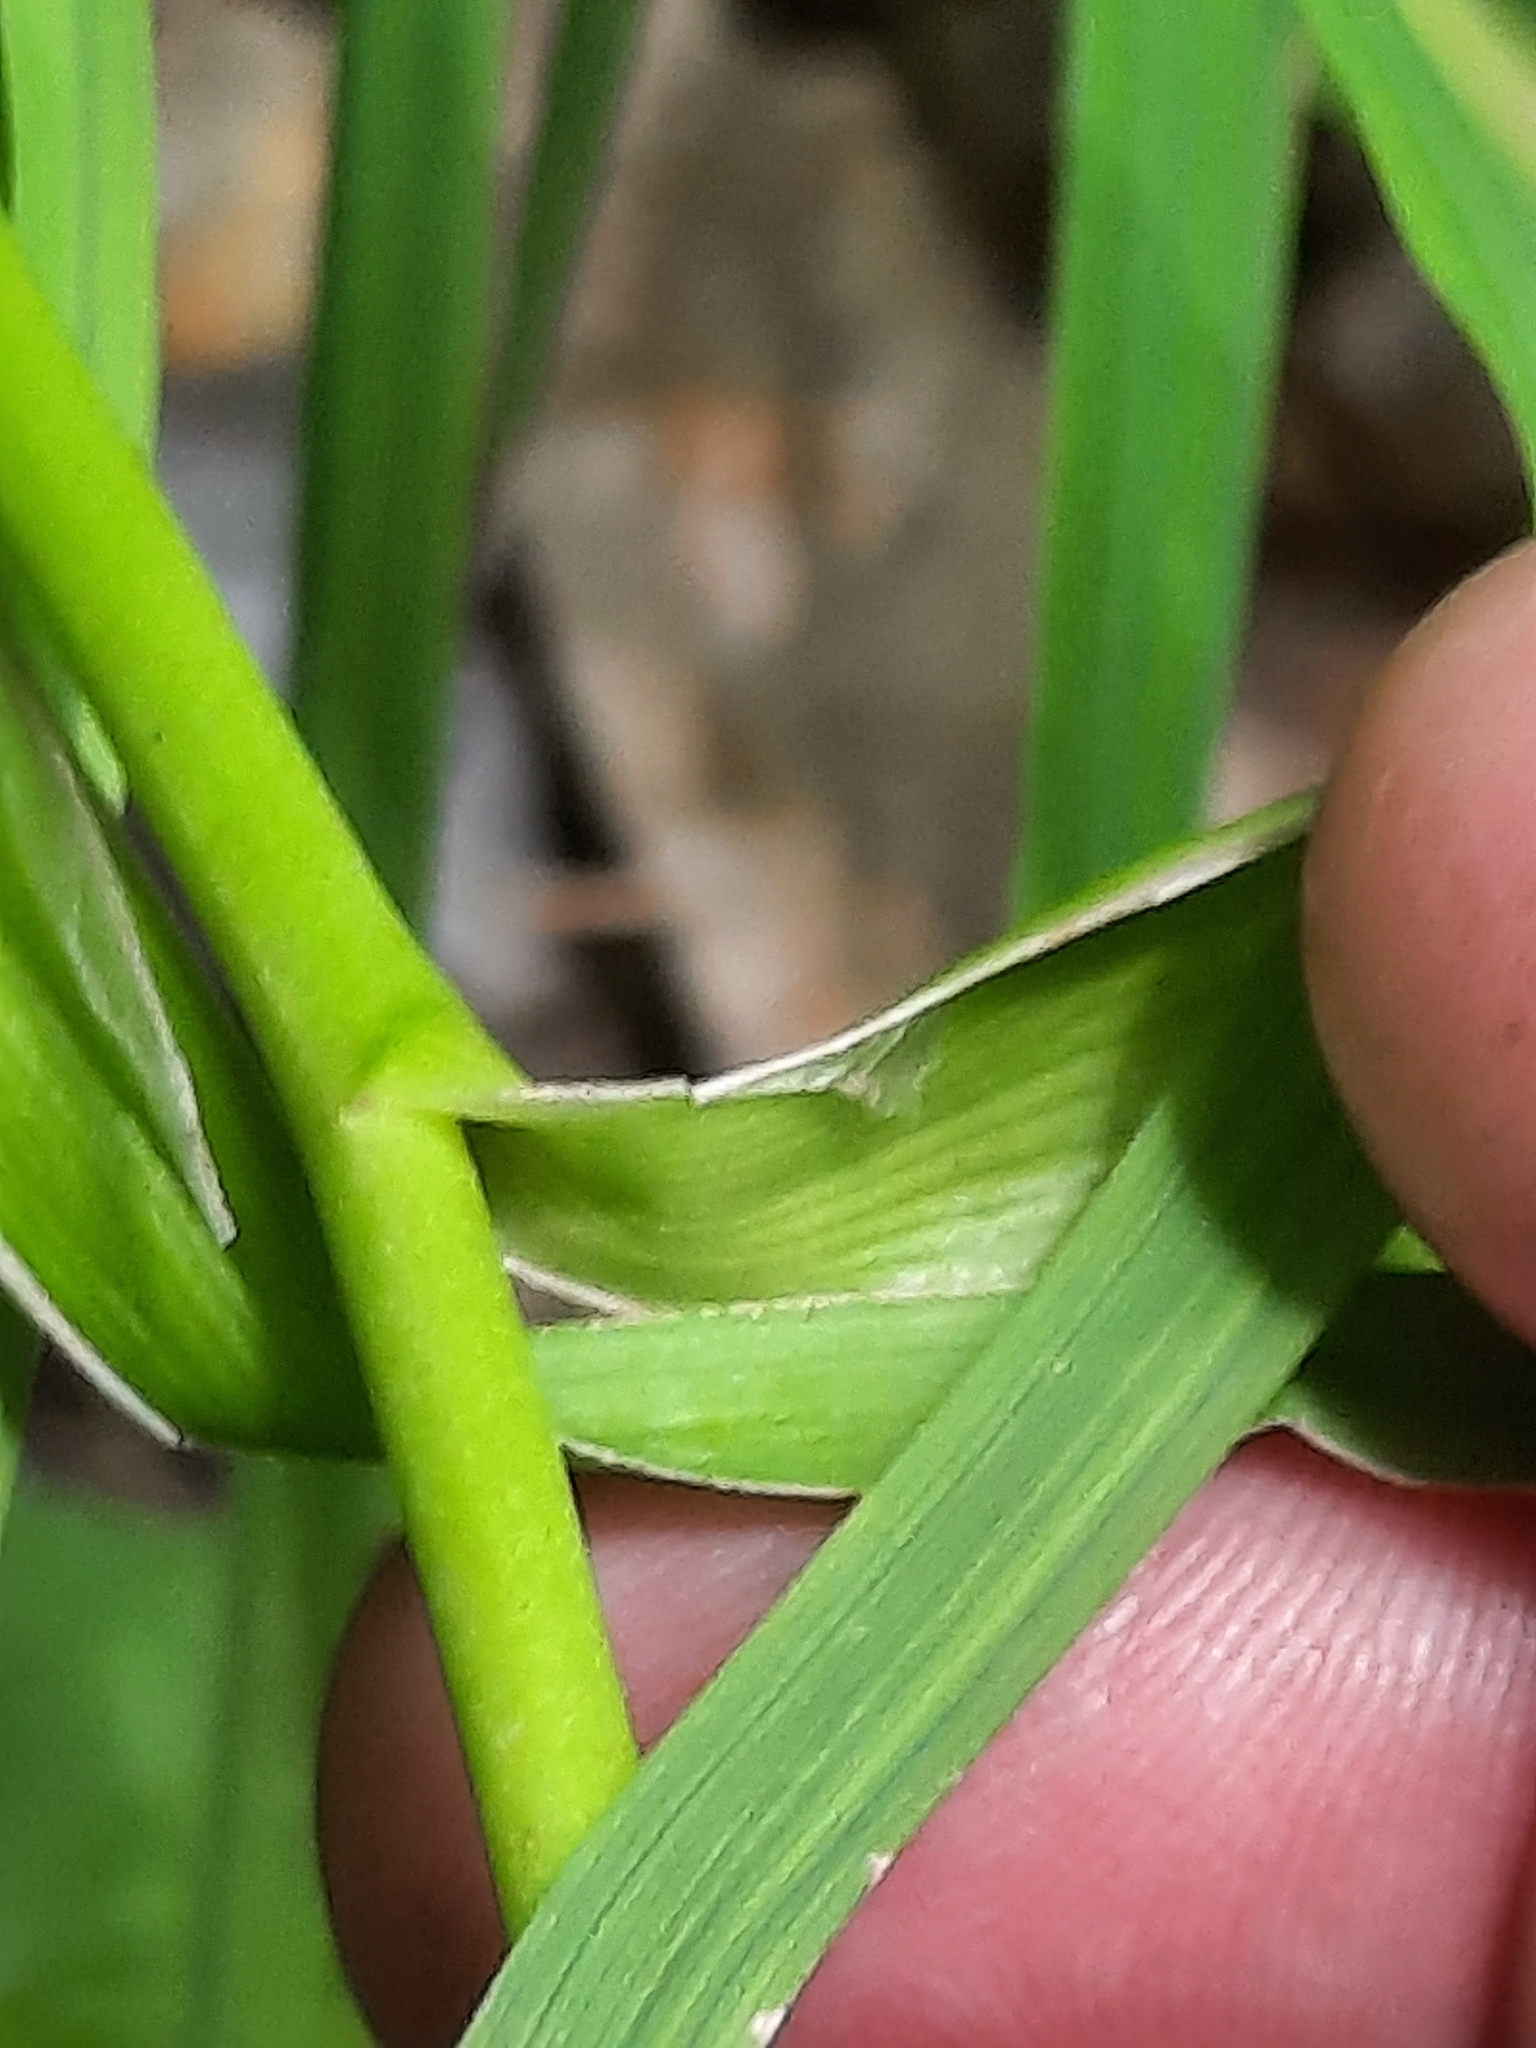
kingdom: Plantae
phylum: Tracheophyta
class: Liliopsida
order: Poales
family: Typhaceae
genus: Sparganium
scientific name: Sparganium americanum
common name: American burreed
